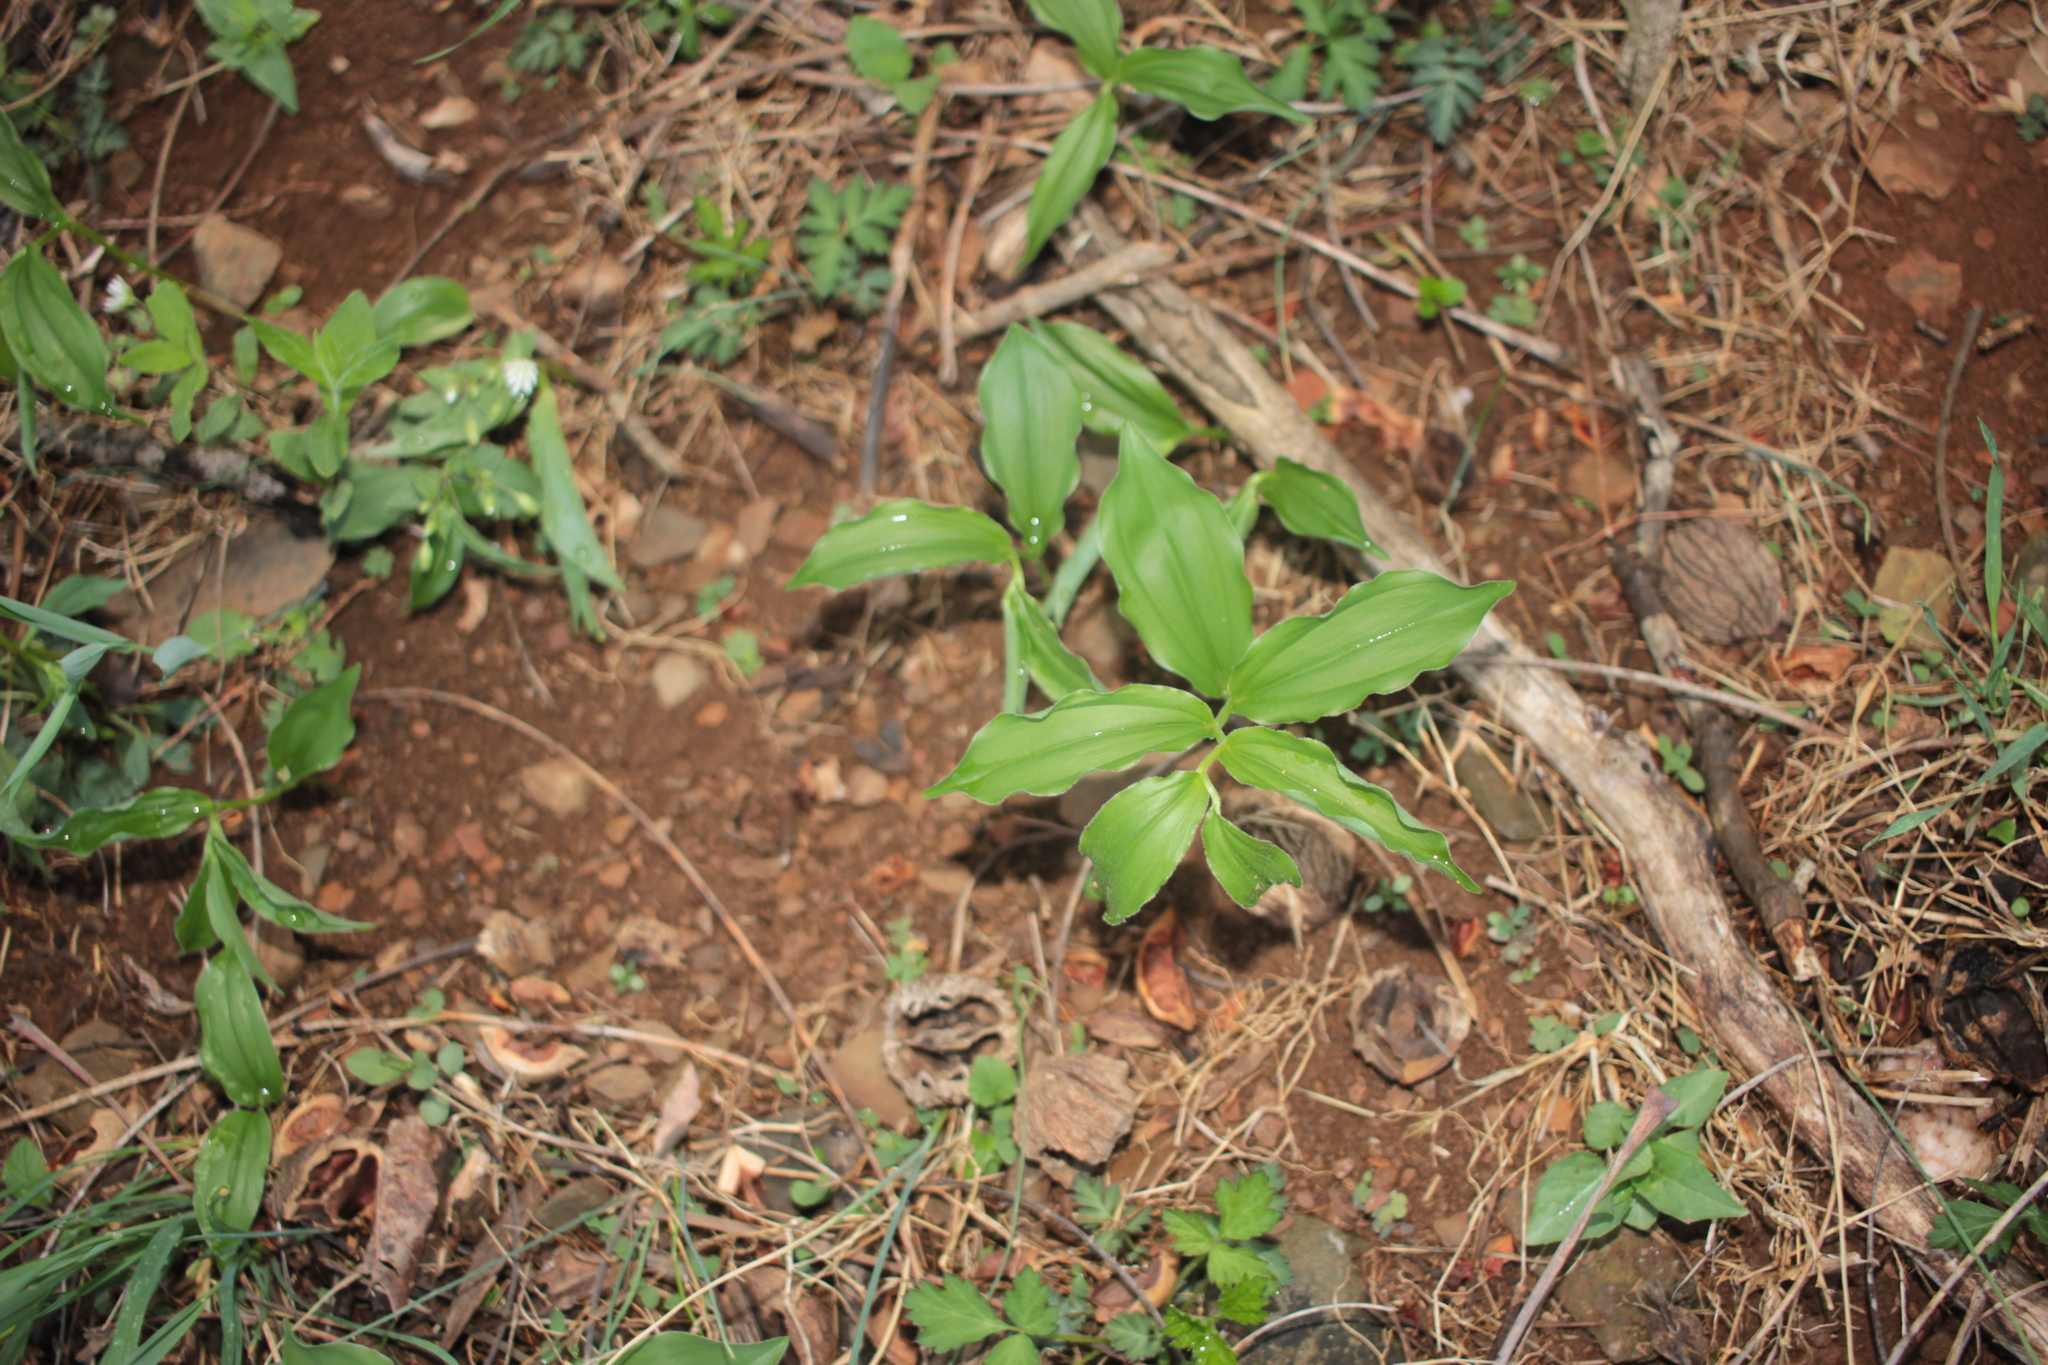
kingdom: Plantae
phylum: Tracheophyta
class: Liliopsida
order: Asparagales
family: Asparagaceae
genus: Maianthemum
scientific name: Maianthemum racemosum
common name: False spikenard
